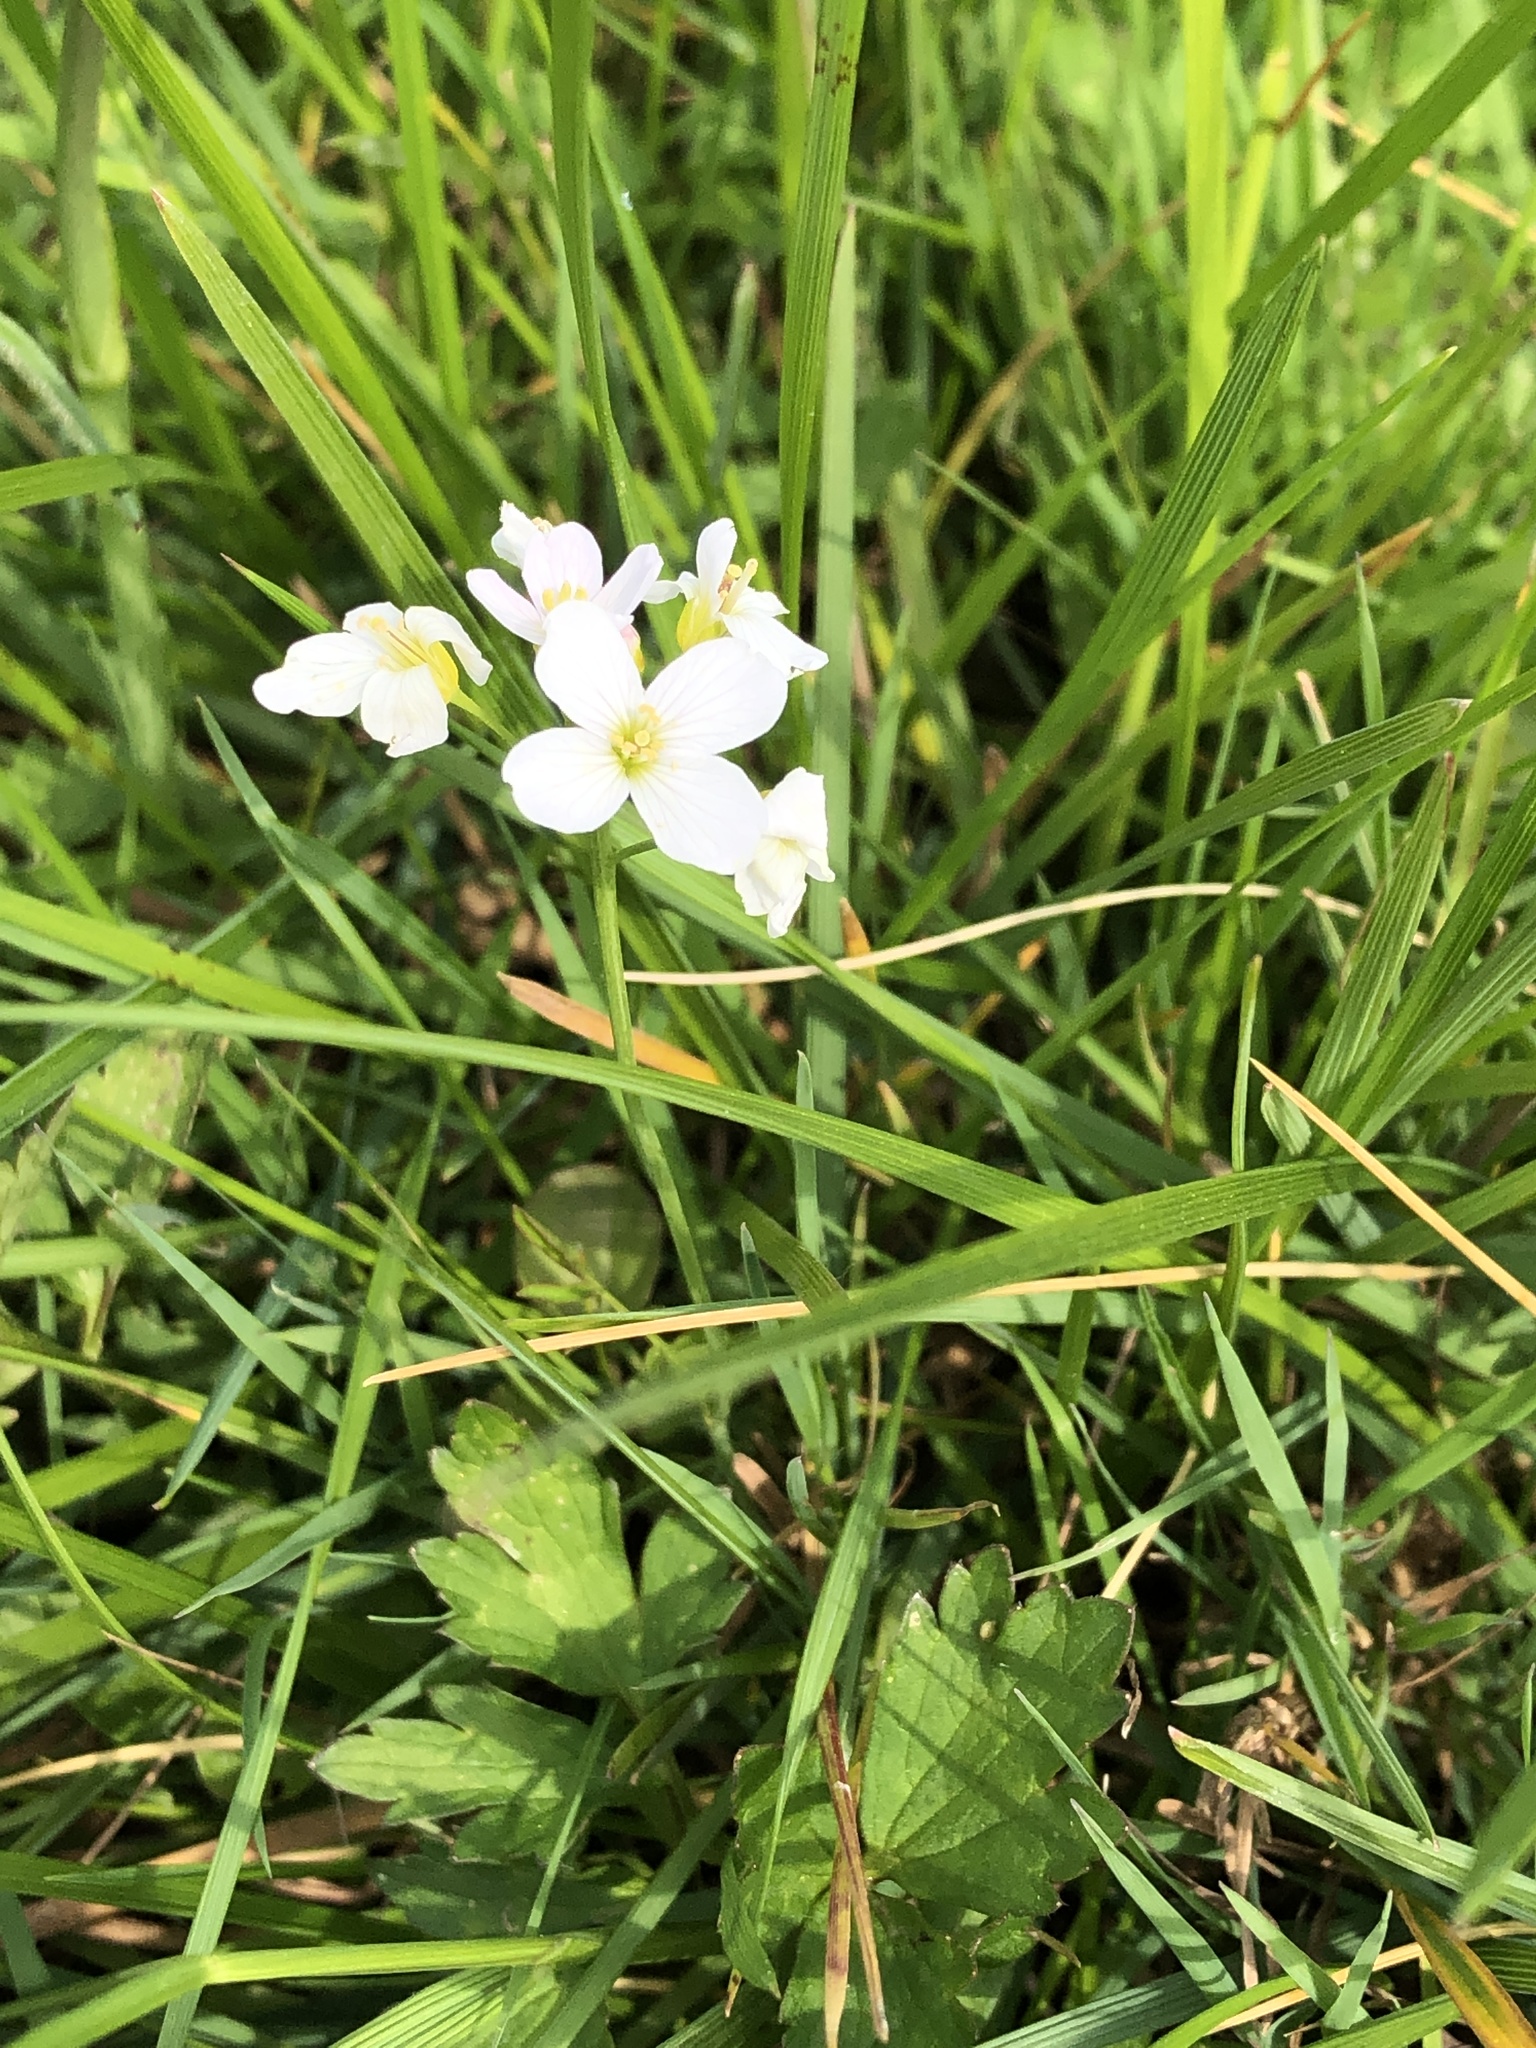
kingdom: Plantae
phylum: Tracheophyta
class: Magnoliopsida
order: Brassicales
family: Brassicaceae
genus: Cardamine
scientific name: Cardamine pratensis
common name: Cuckoo flower
